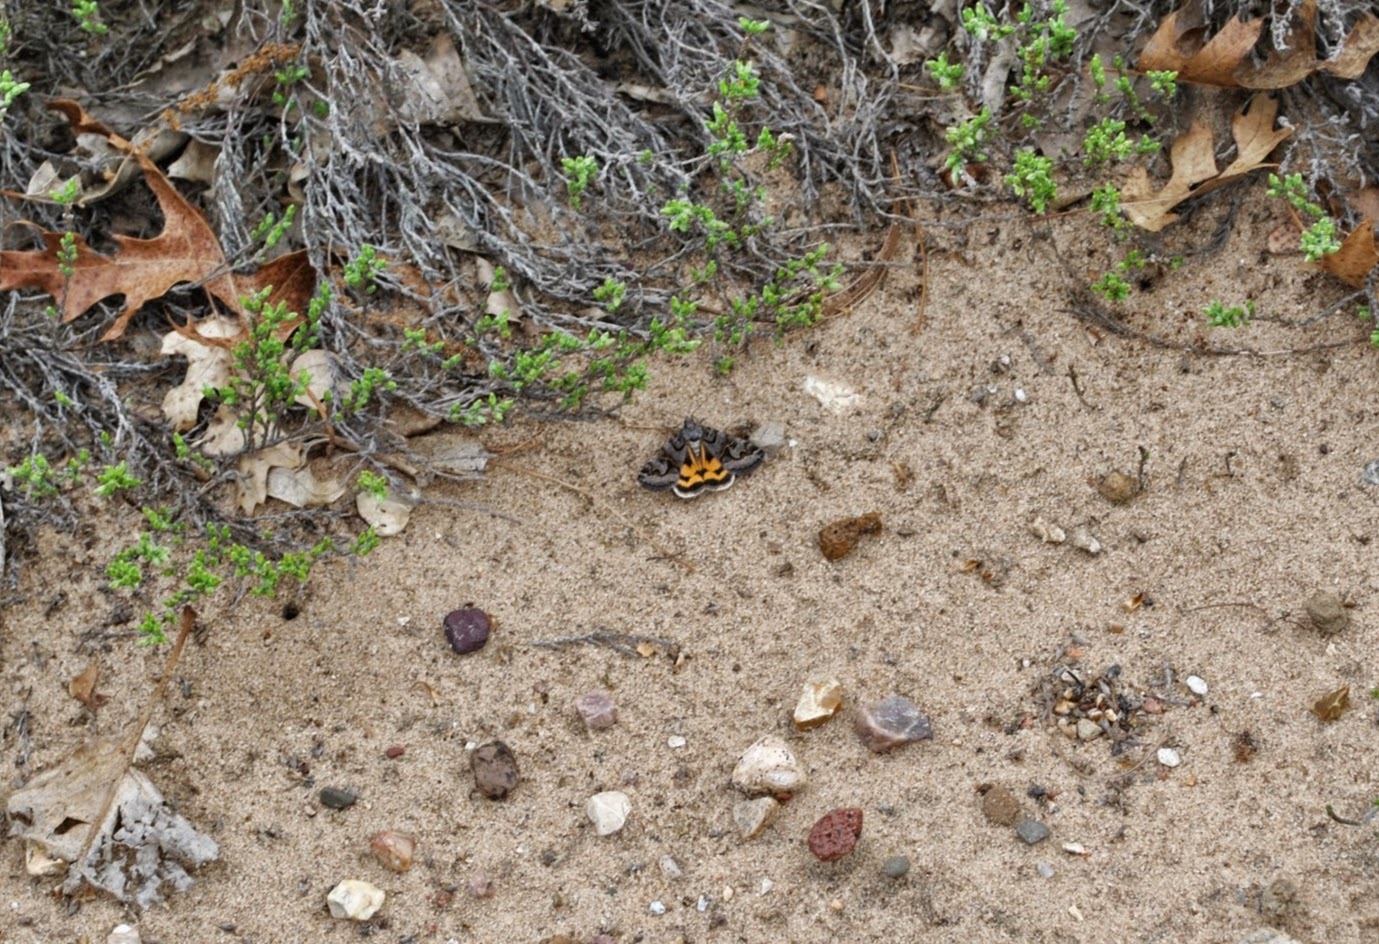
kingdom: Animalia
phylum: Arthropoda
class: Insecta
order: Lepidoptera
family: Erebidae
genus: Drasteria
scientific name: Drasteria graphica
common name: Coastal graphic
